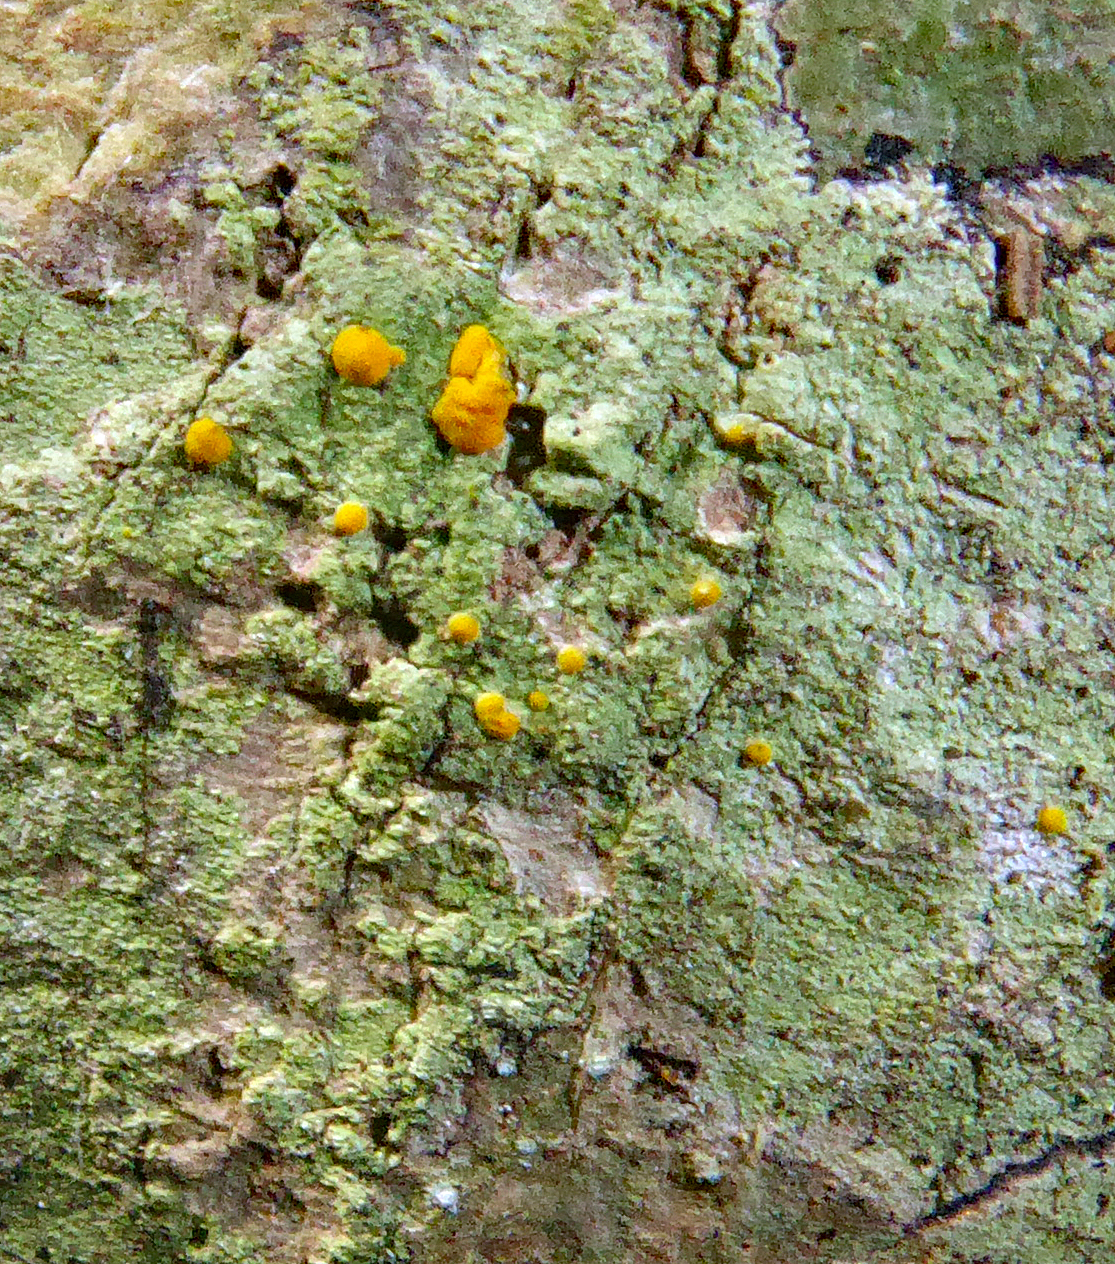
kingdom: Fungi
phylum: Ascomycota
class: Lecanoromycetes
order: Lecanorales
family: Ramalinaceae
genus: Stirtoniella
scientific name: Stirtoniella kelica
